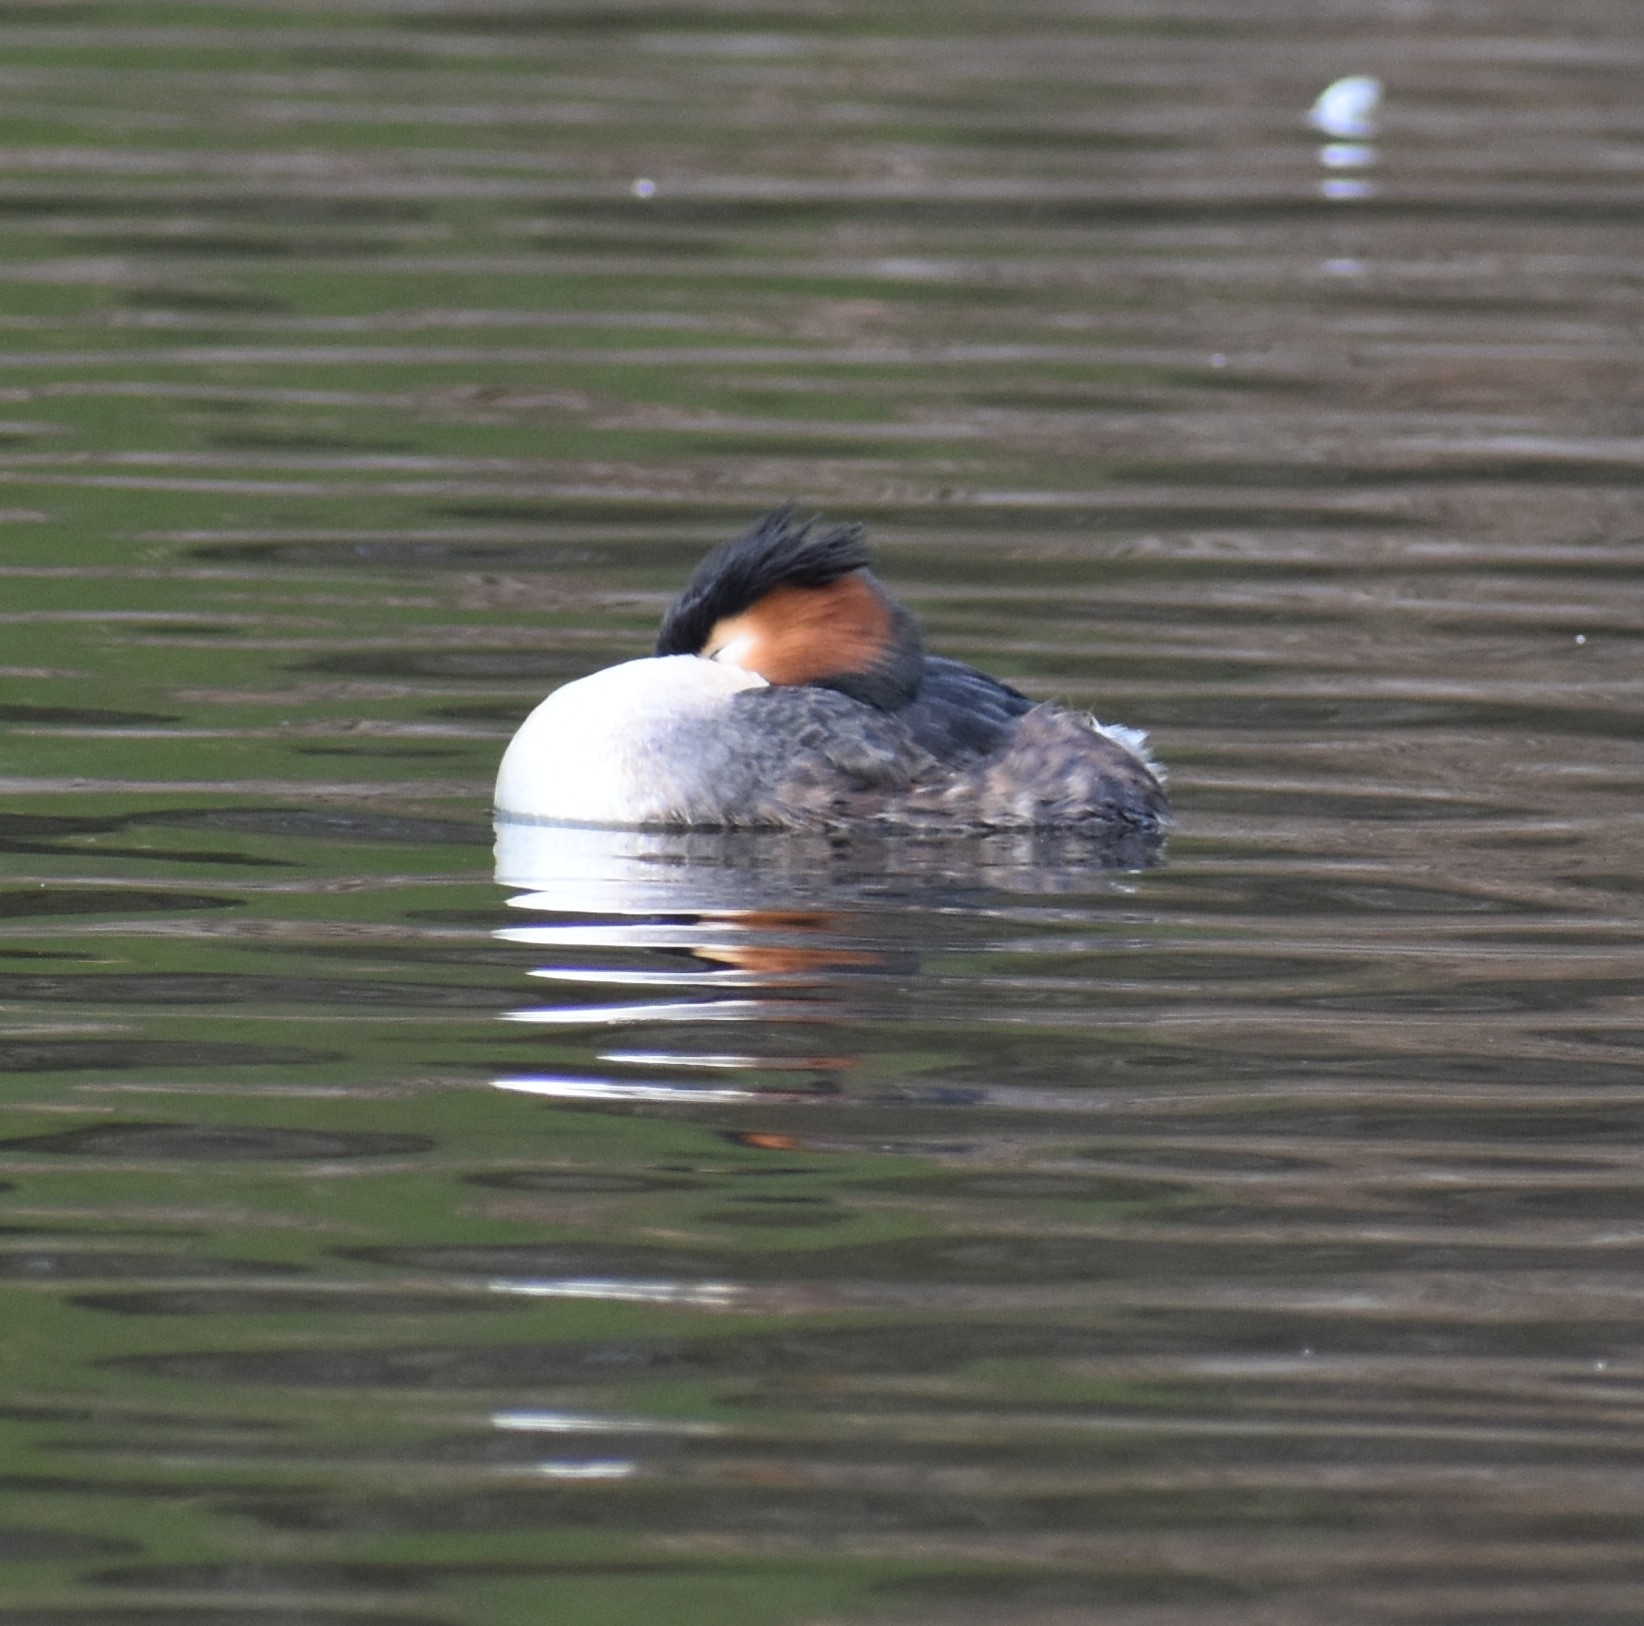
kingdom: Animalia
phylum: Chordata
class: Aves
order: Podicipediformes
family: Podicipedidae
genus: Podiceps
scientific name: Podiceps cristatus
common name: Great crested grebe
